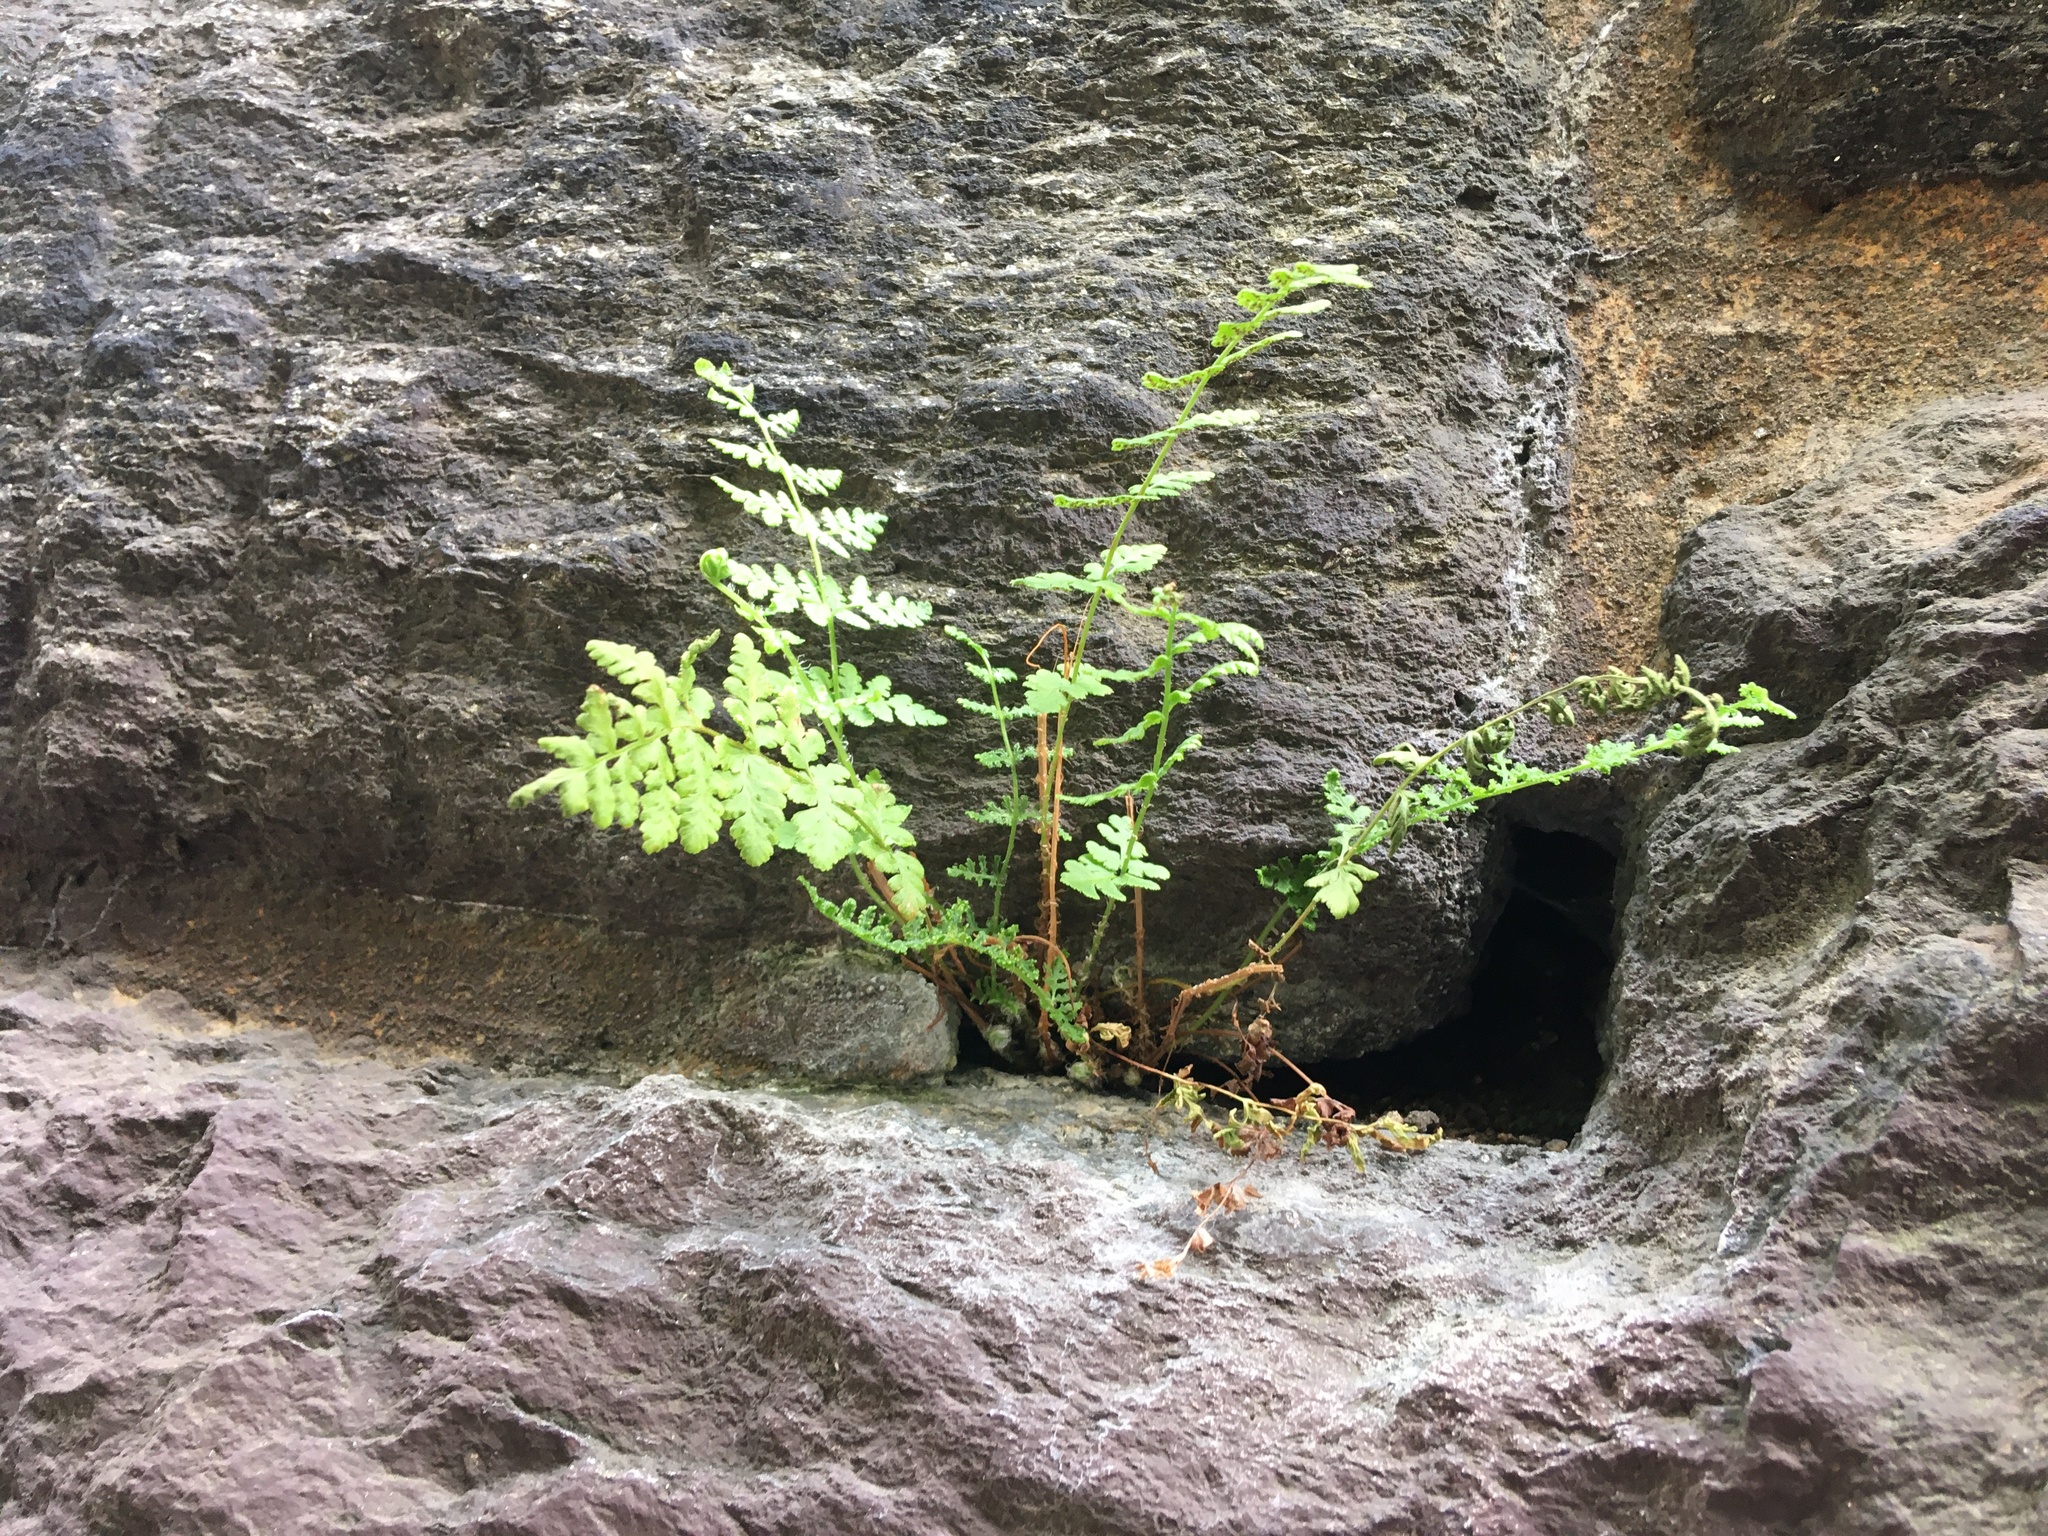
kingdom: Plantae
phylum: Tracheophyta
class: Polypodiopsida
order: Polypodiales
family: Woodsiaceae
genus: Physematium
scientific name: Physematium obtusum
